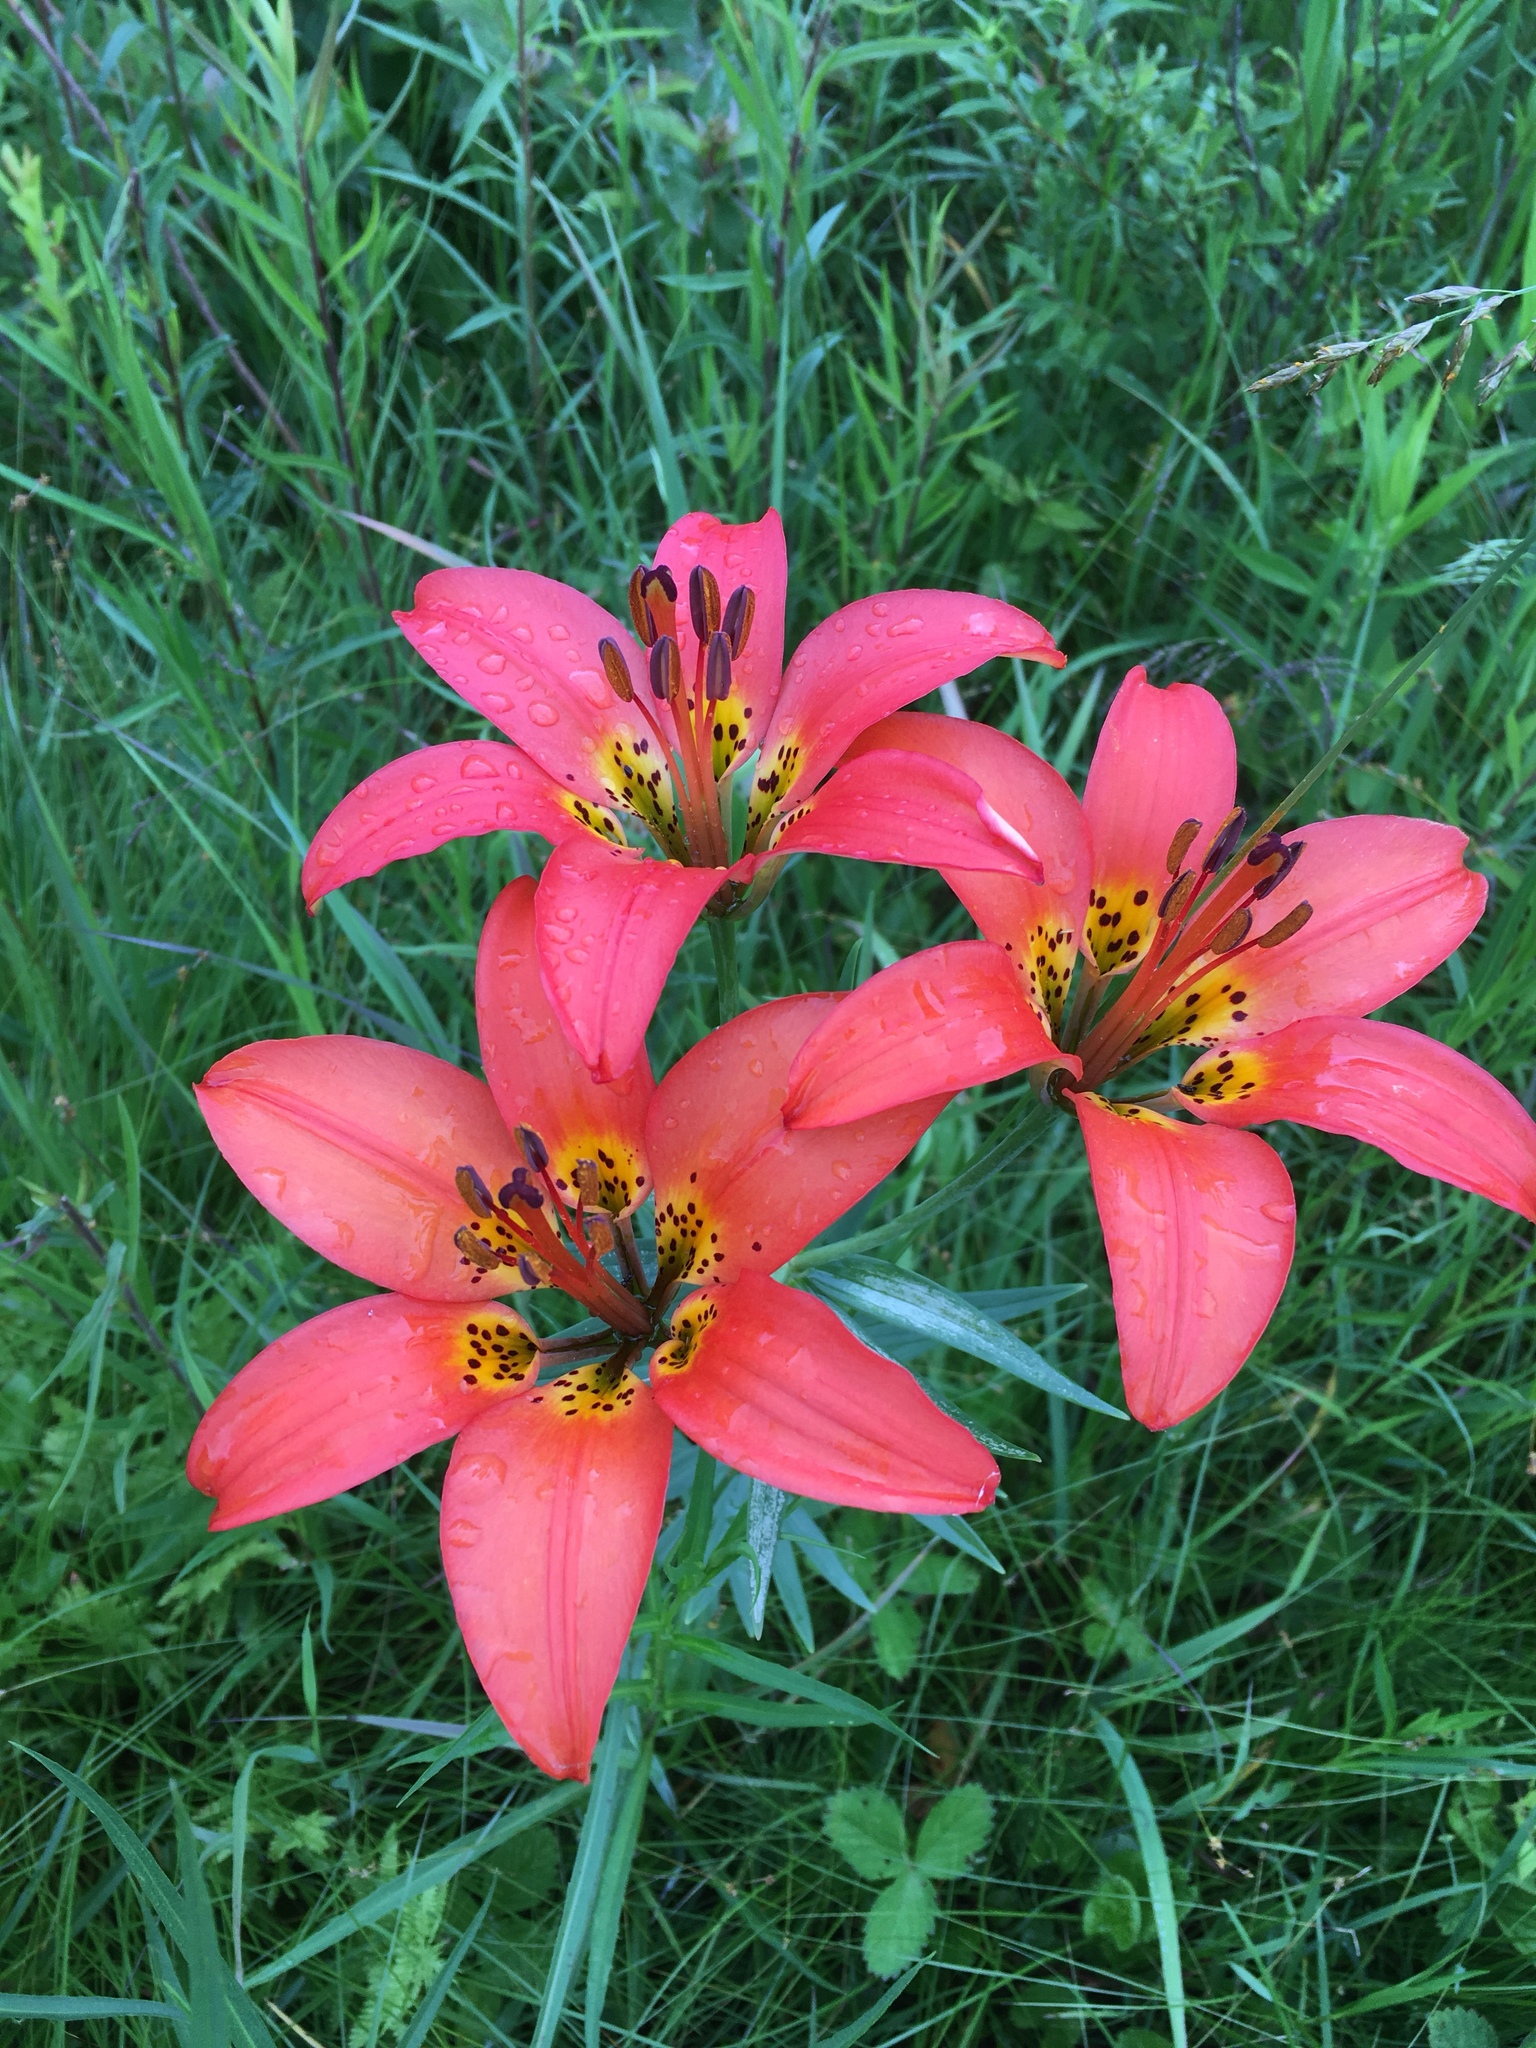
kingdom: Plantae
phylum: Tracheophyta
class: Liliopsida
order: Liliales
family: Liliaceae
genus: Lilium
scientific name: Lilium philadelphicum
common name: Red lily
